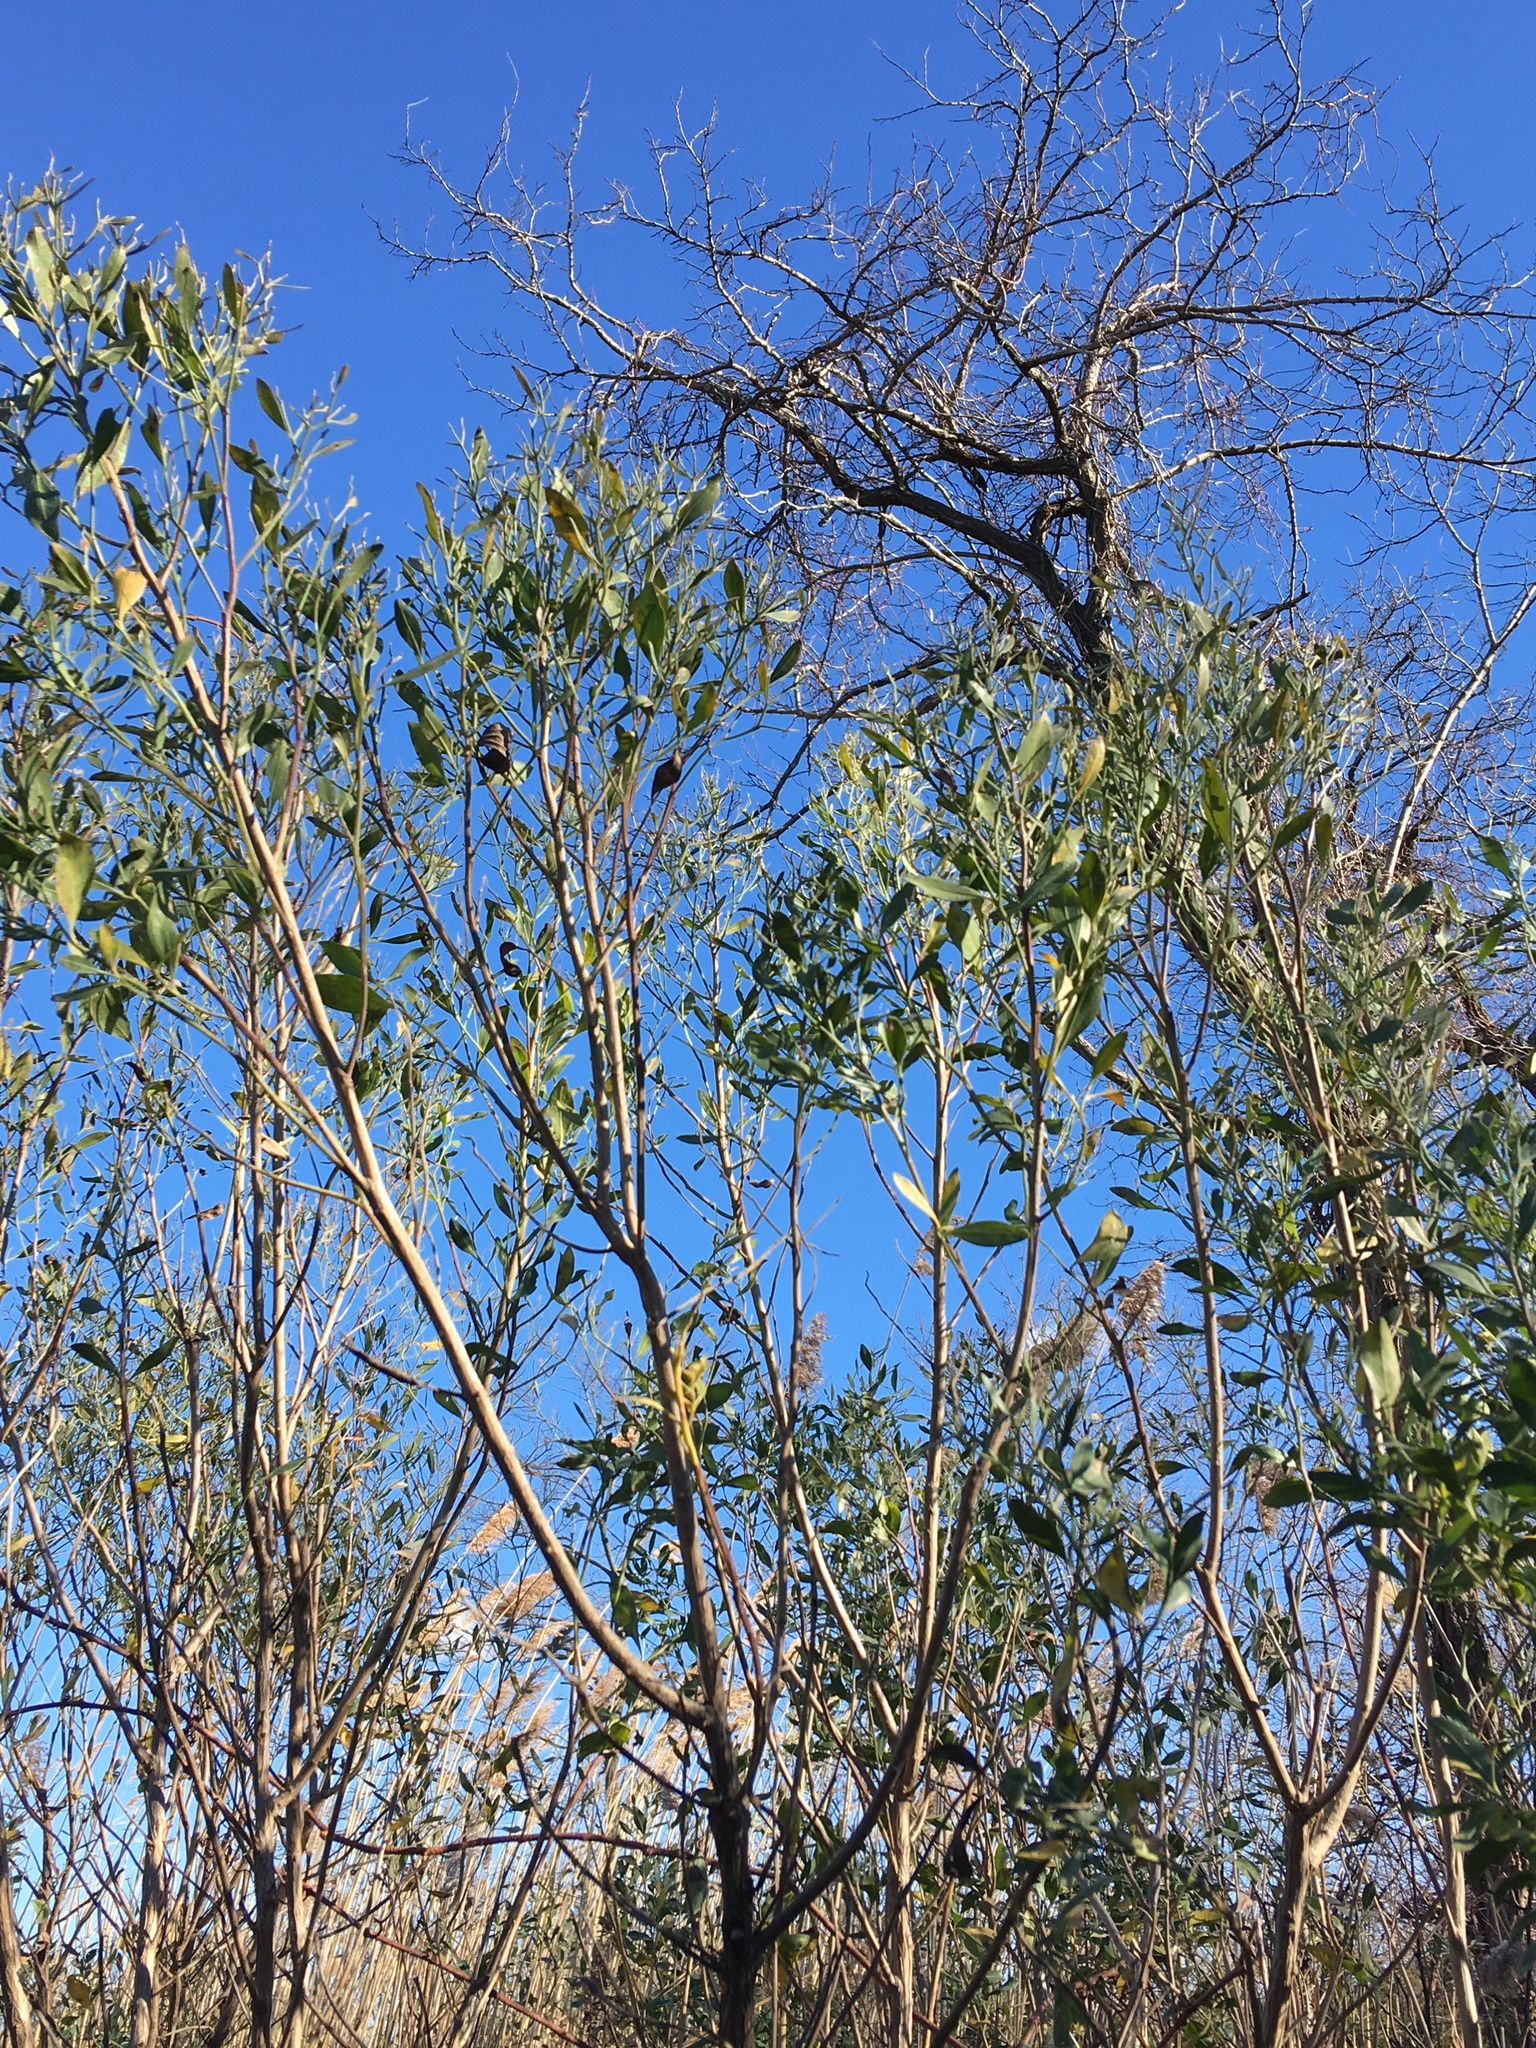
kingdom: Plantae
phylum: Tracheophyta
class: Magnoliopsida
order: Asterales
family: Asteraceae
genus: Baccharis
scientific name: Baccharis halimifolia
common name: Eastern baccharis
